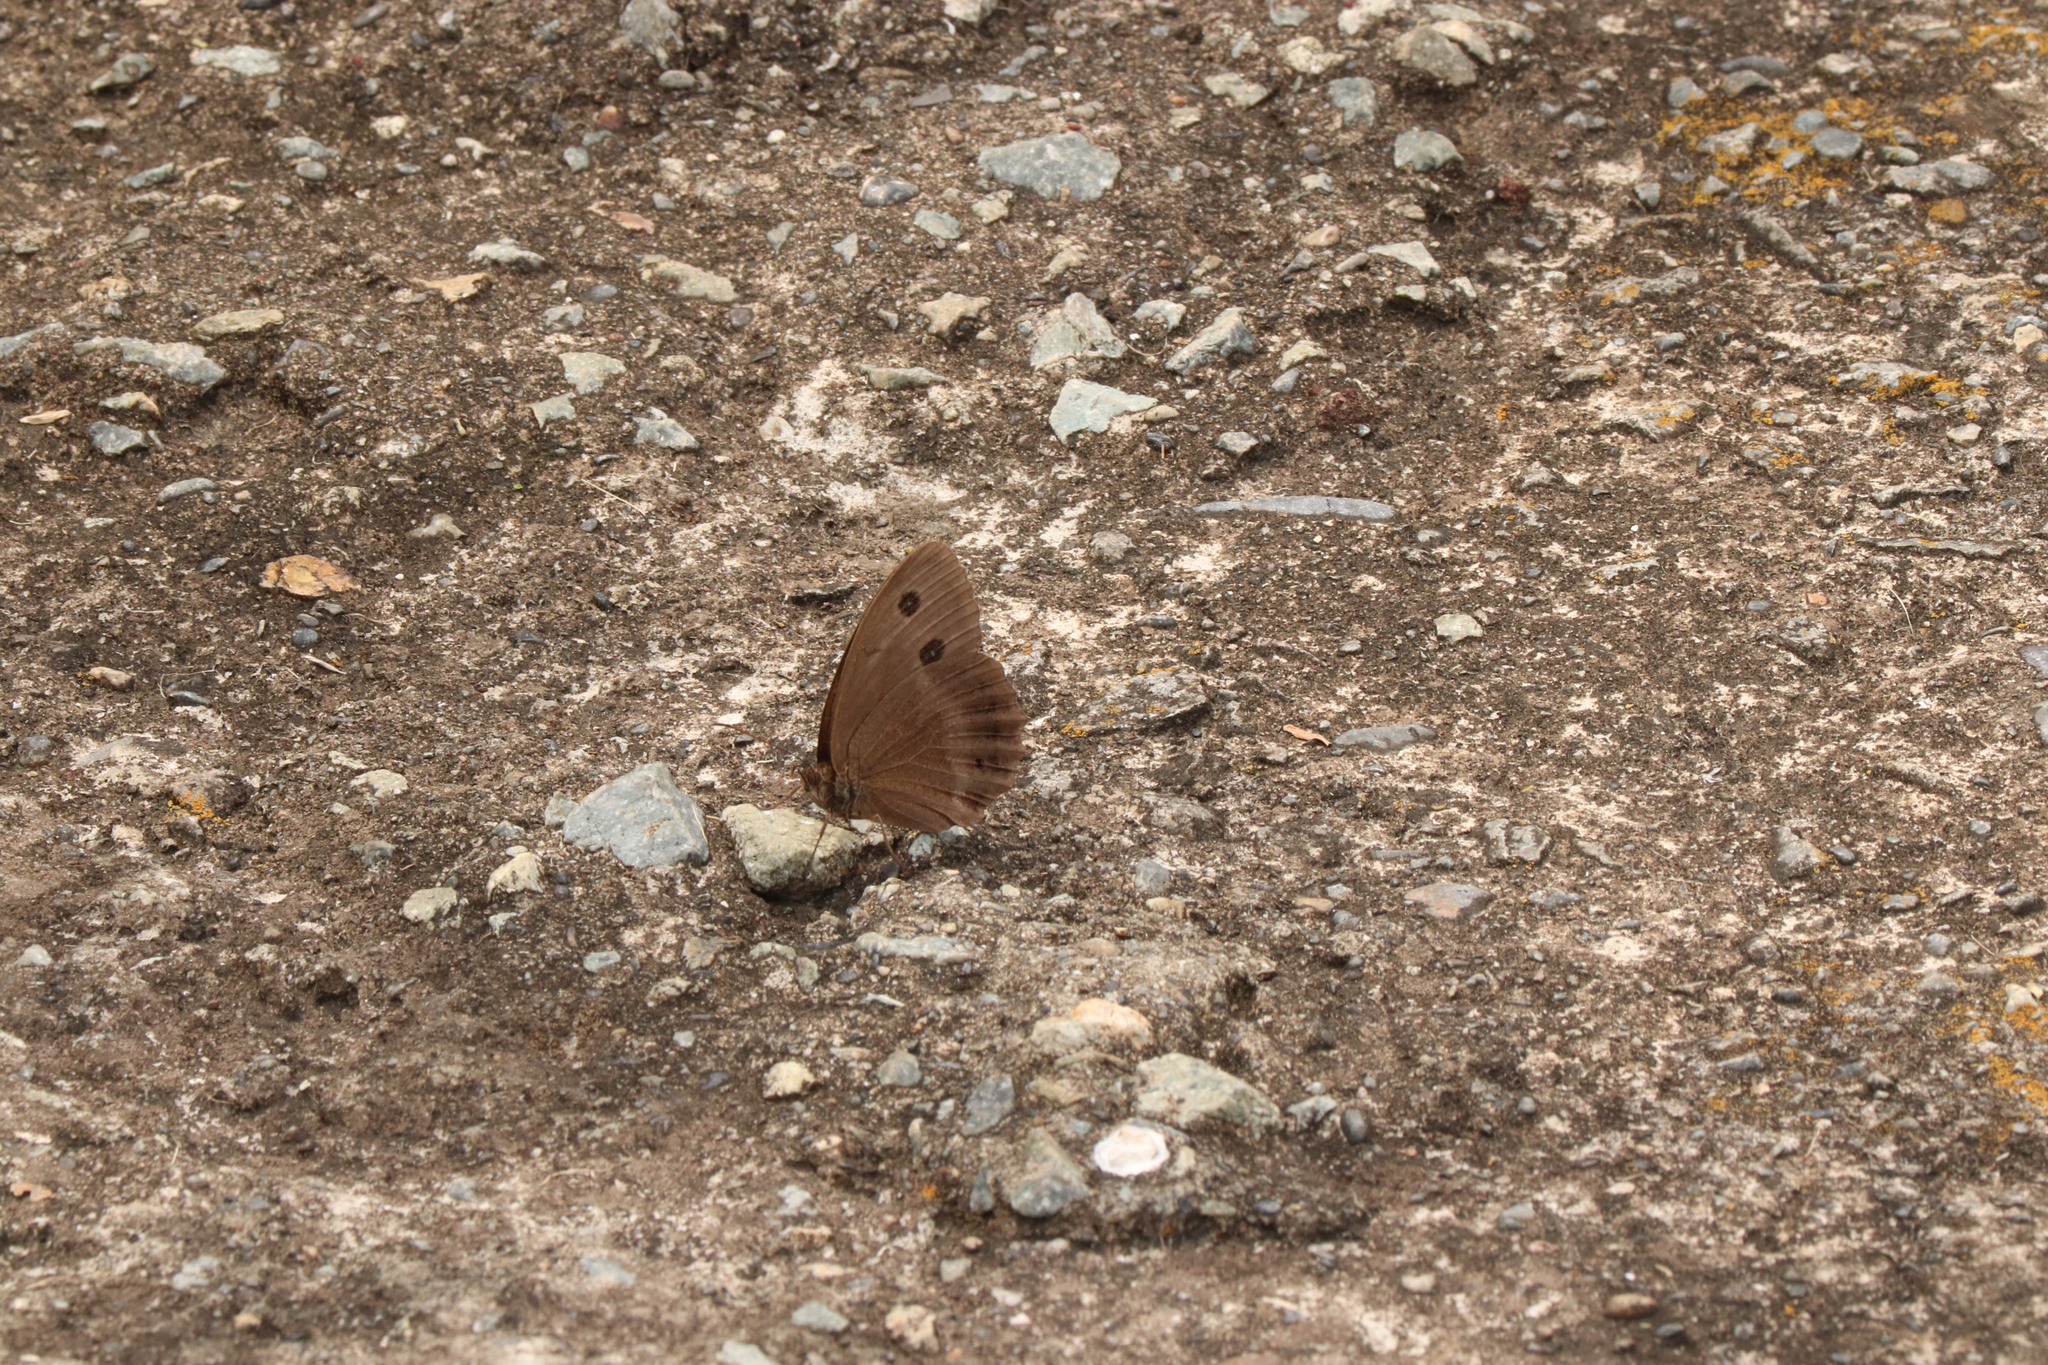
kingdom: Animalia
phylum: Arthropoda
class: Insecta
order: Lepidoptera
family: Nymphalidae
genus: Minois
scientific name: Minois dryas
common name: Dryad
